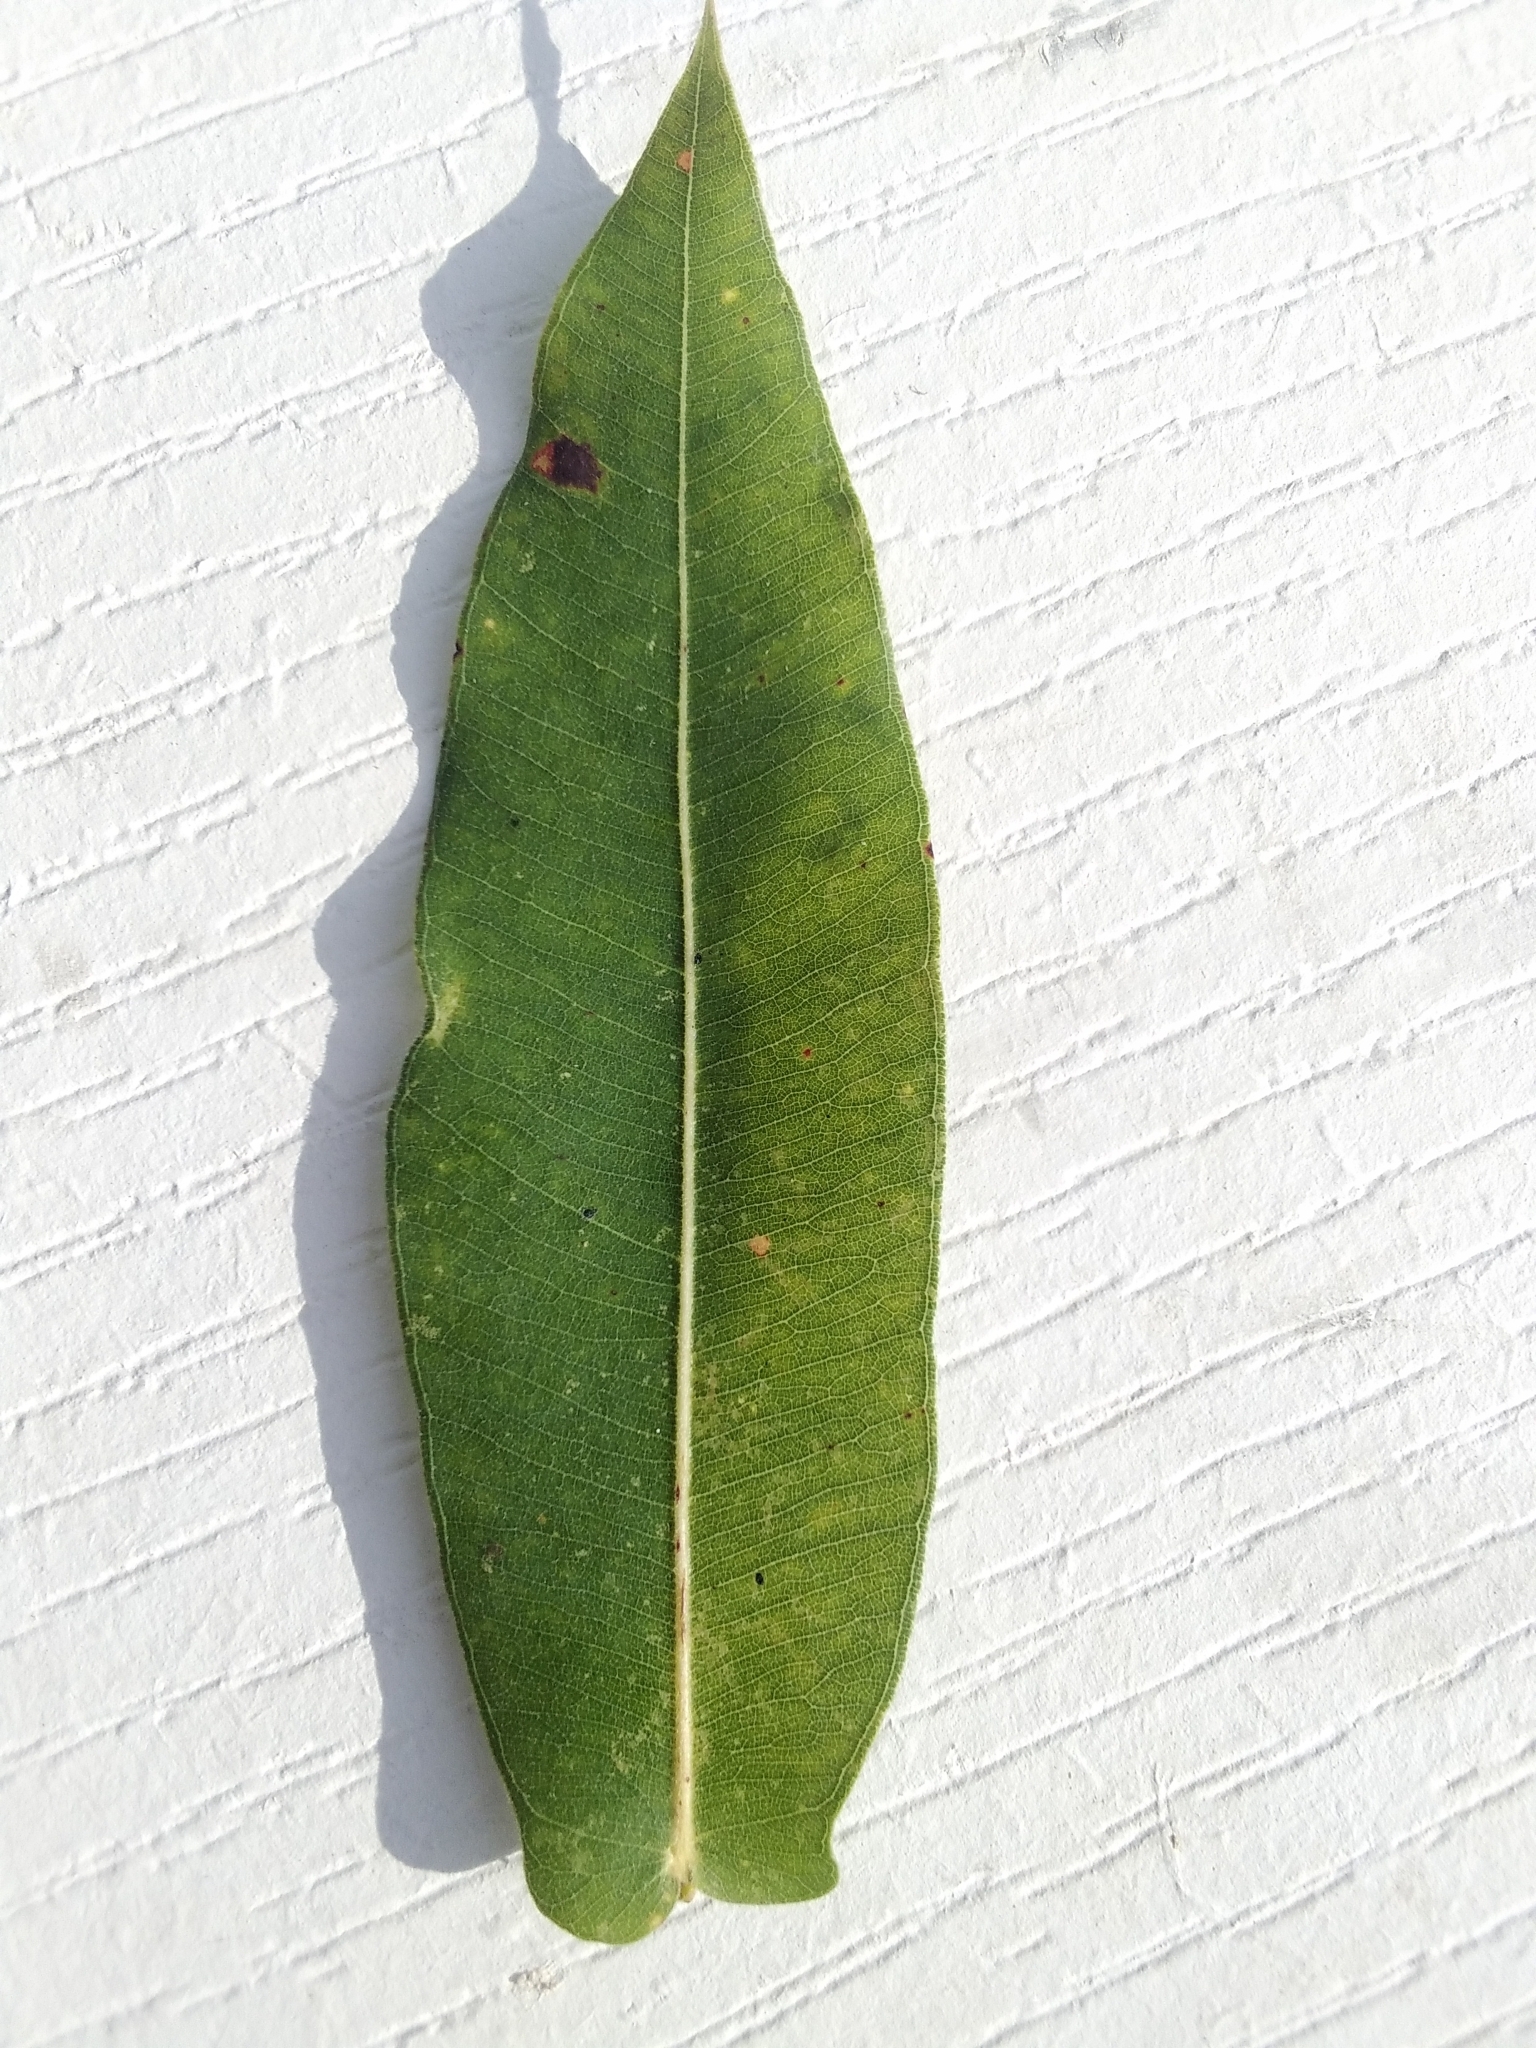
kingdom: Plantae
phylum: Tracheophyta
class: Magnoliopsida
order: Myrtales
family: Myrtaceae
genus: Angophora
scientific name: Angophora subvelutina
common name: Broad-leaved apple
